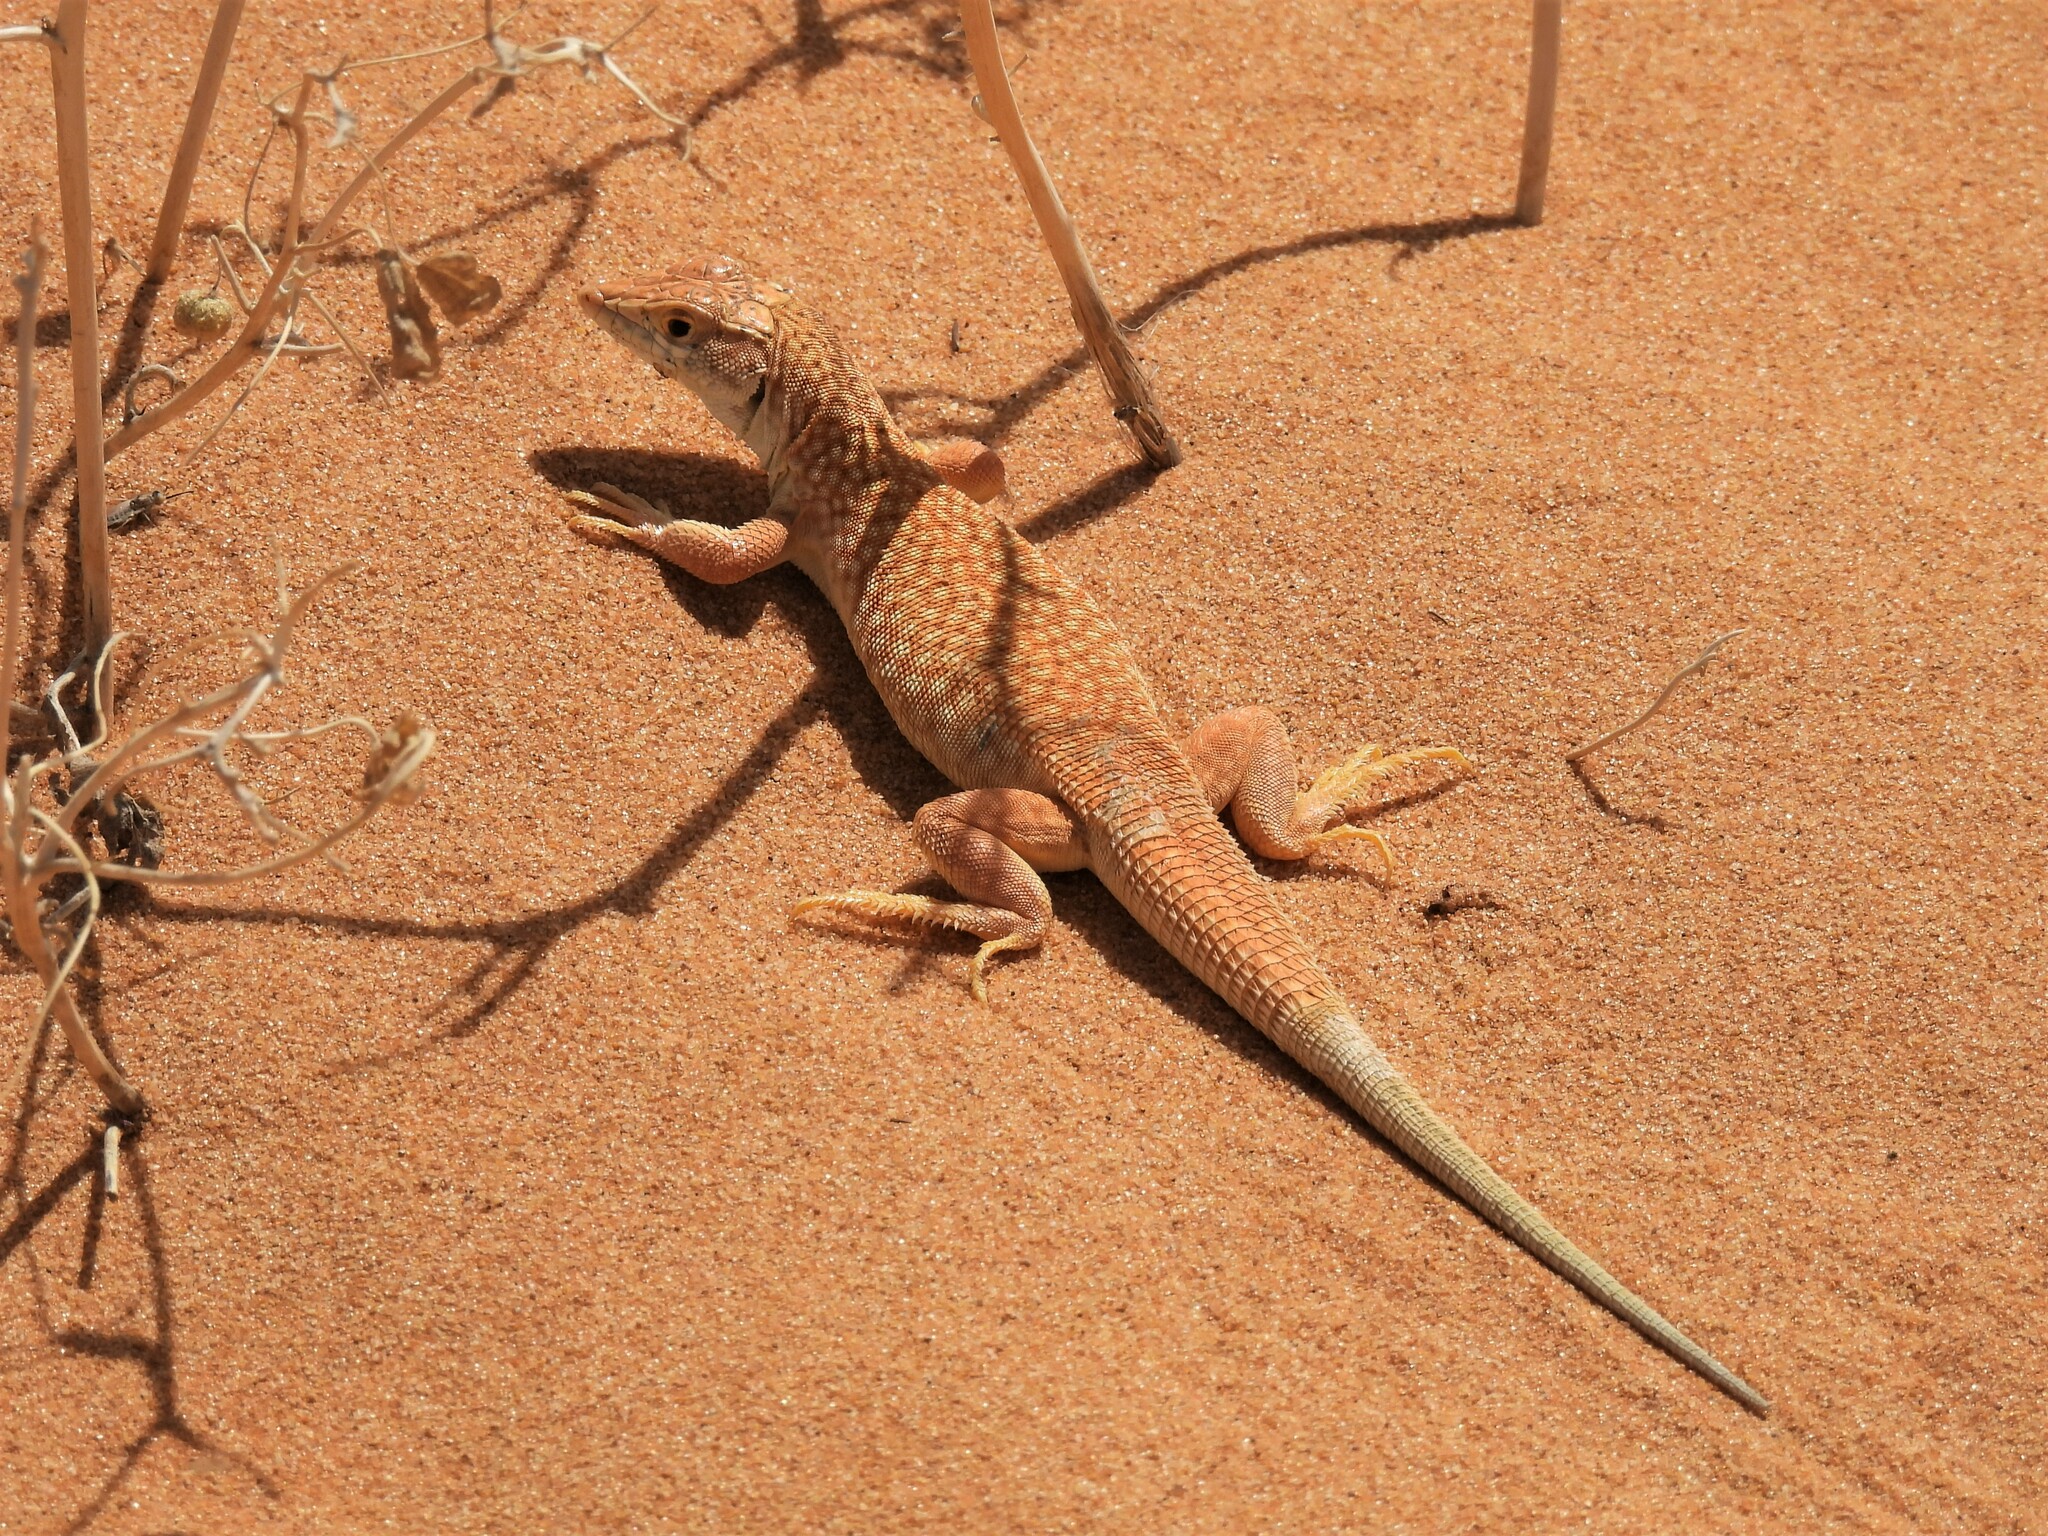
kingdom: Animalia
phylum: Chordata
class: Squamata
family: Lacertidae
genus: Acanthodactylus
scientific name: Acanthodactylus schmidti
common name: Schmidt's fringe-toed lizard
